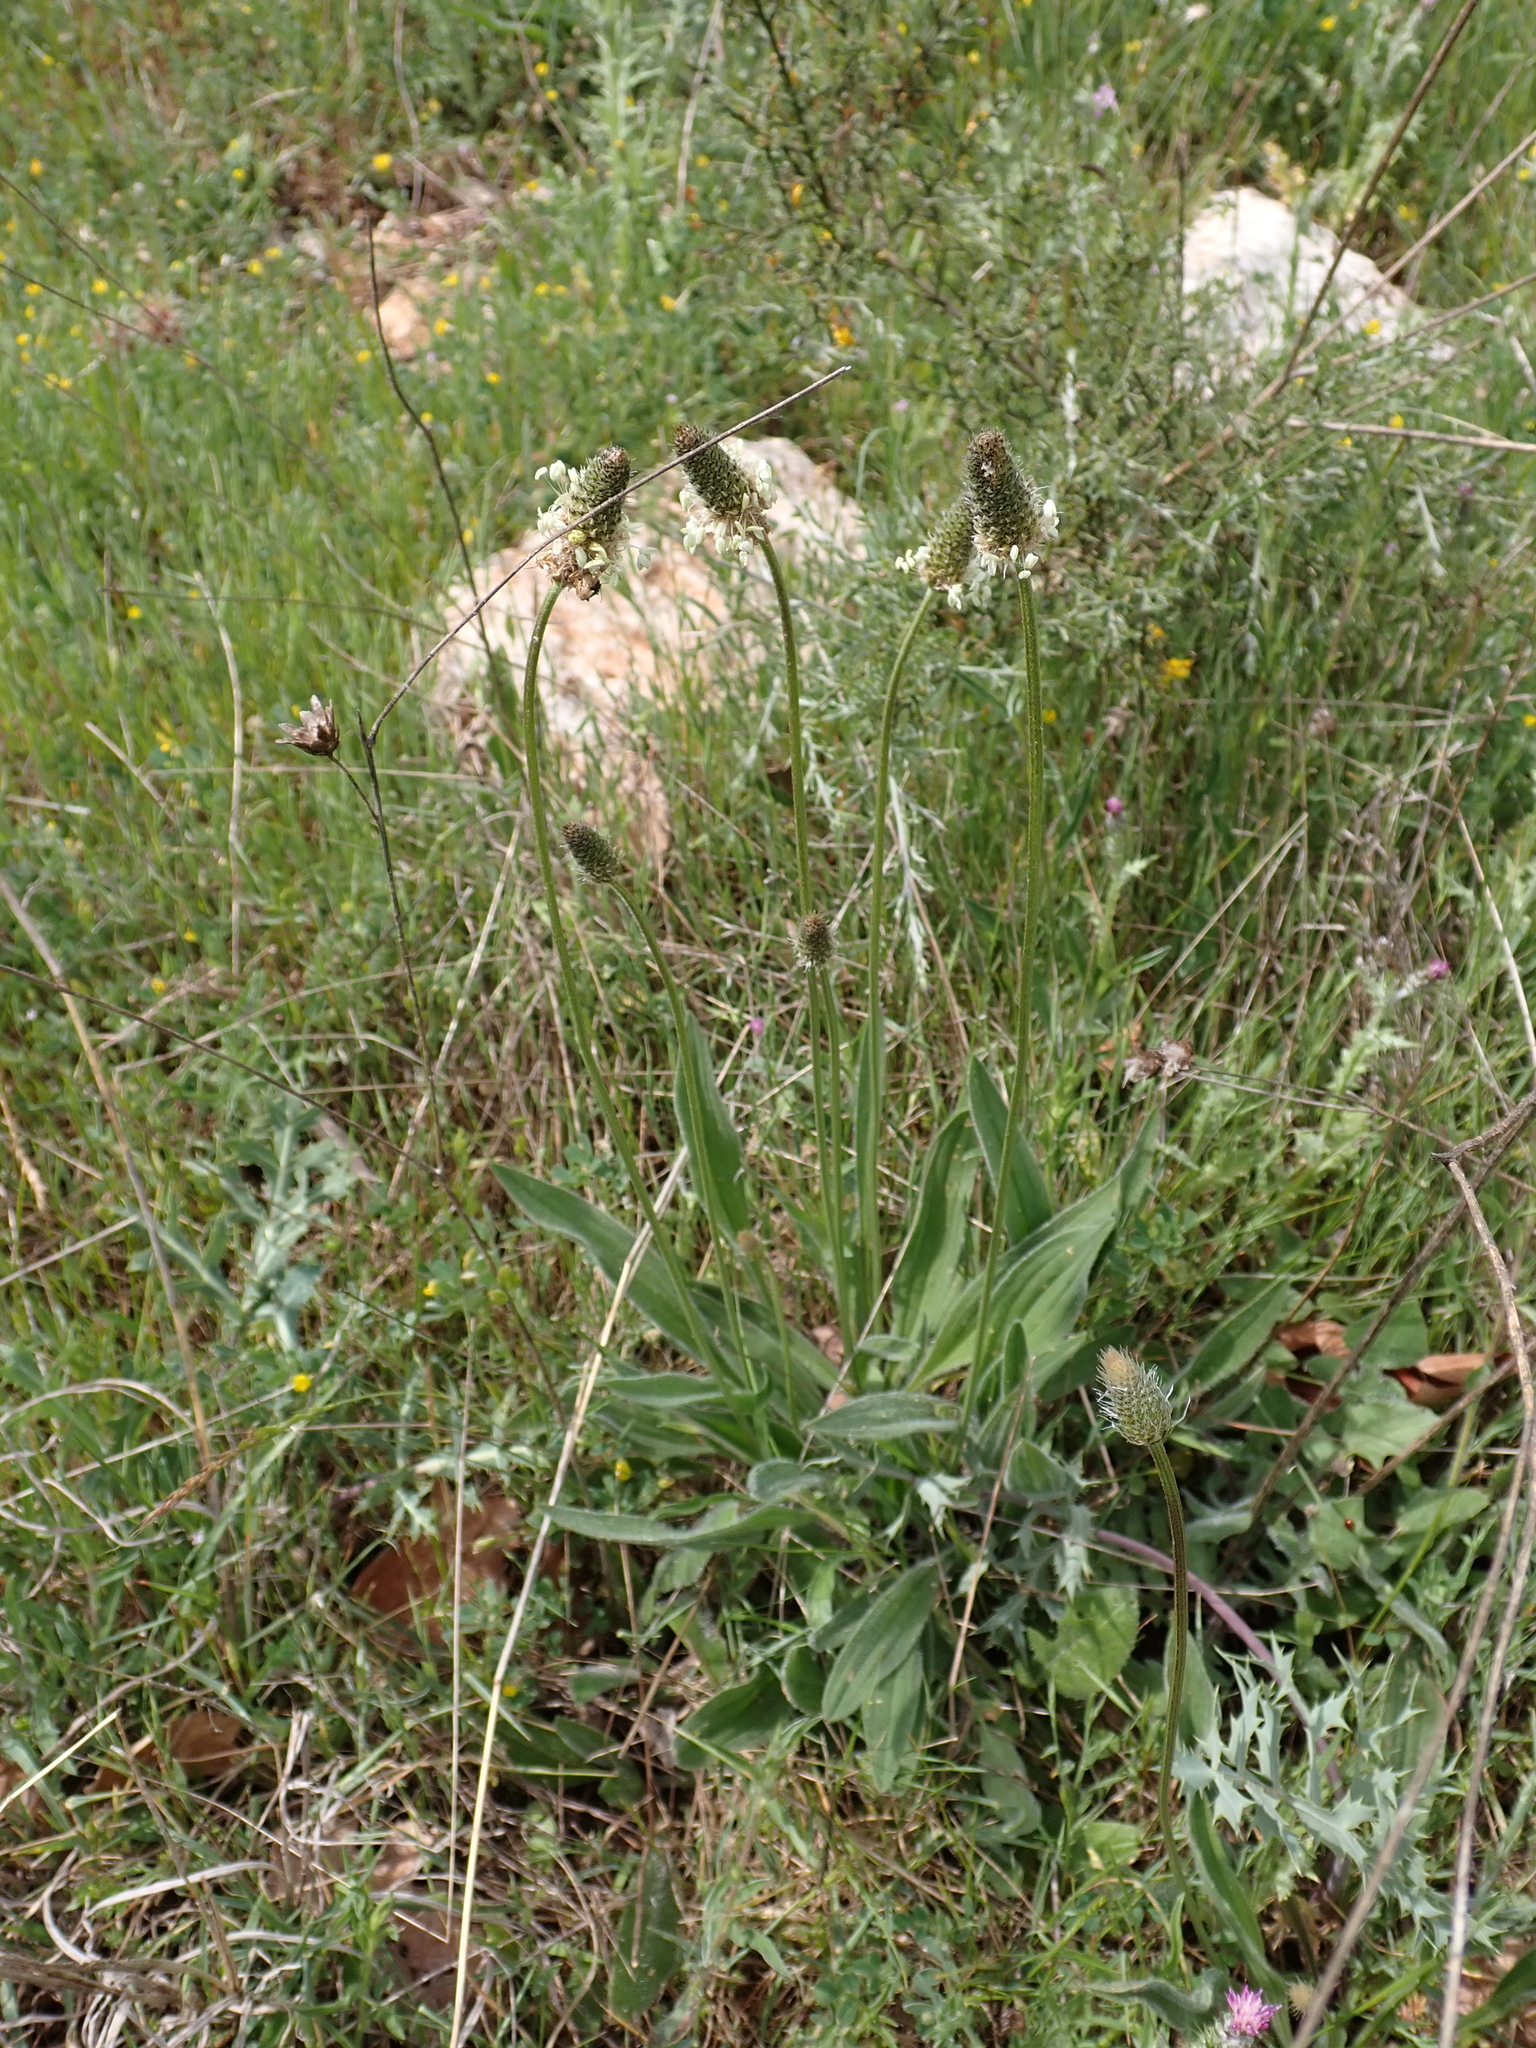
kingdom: Plantae
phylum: Tracheophyta
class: Magnoliopsida
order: Lamiales
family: Plantaginaceae
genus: Plantago
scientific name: Plantago lanceolata
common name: Ribwort plantain
